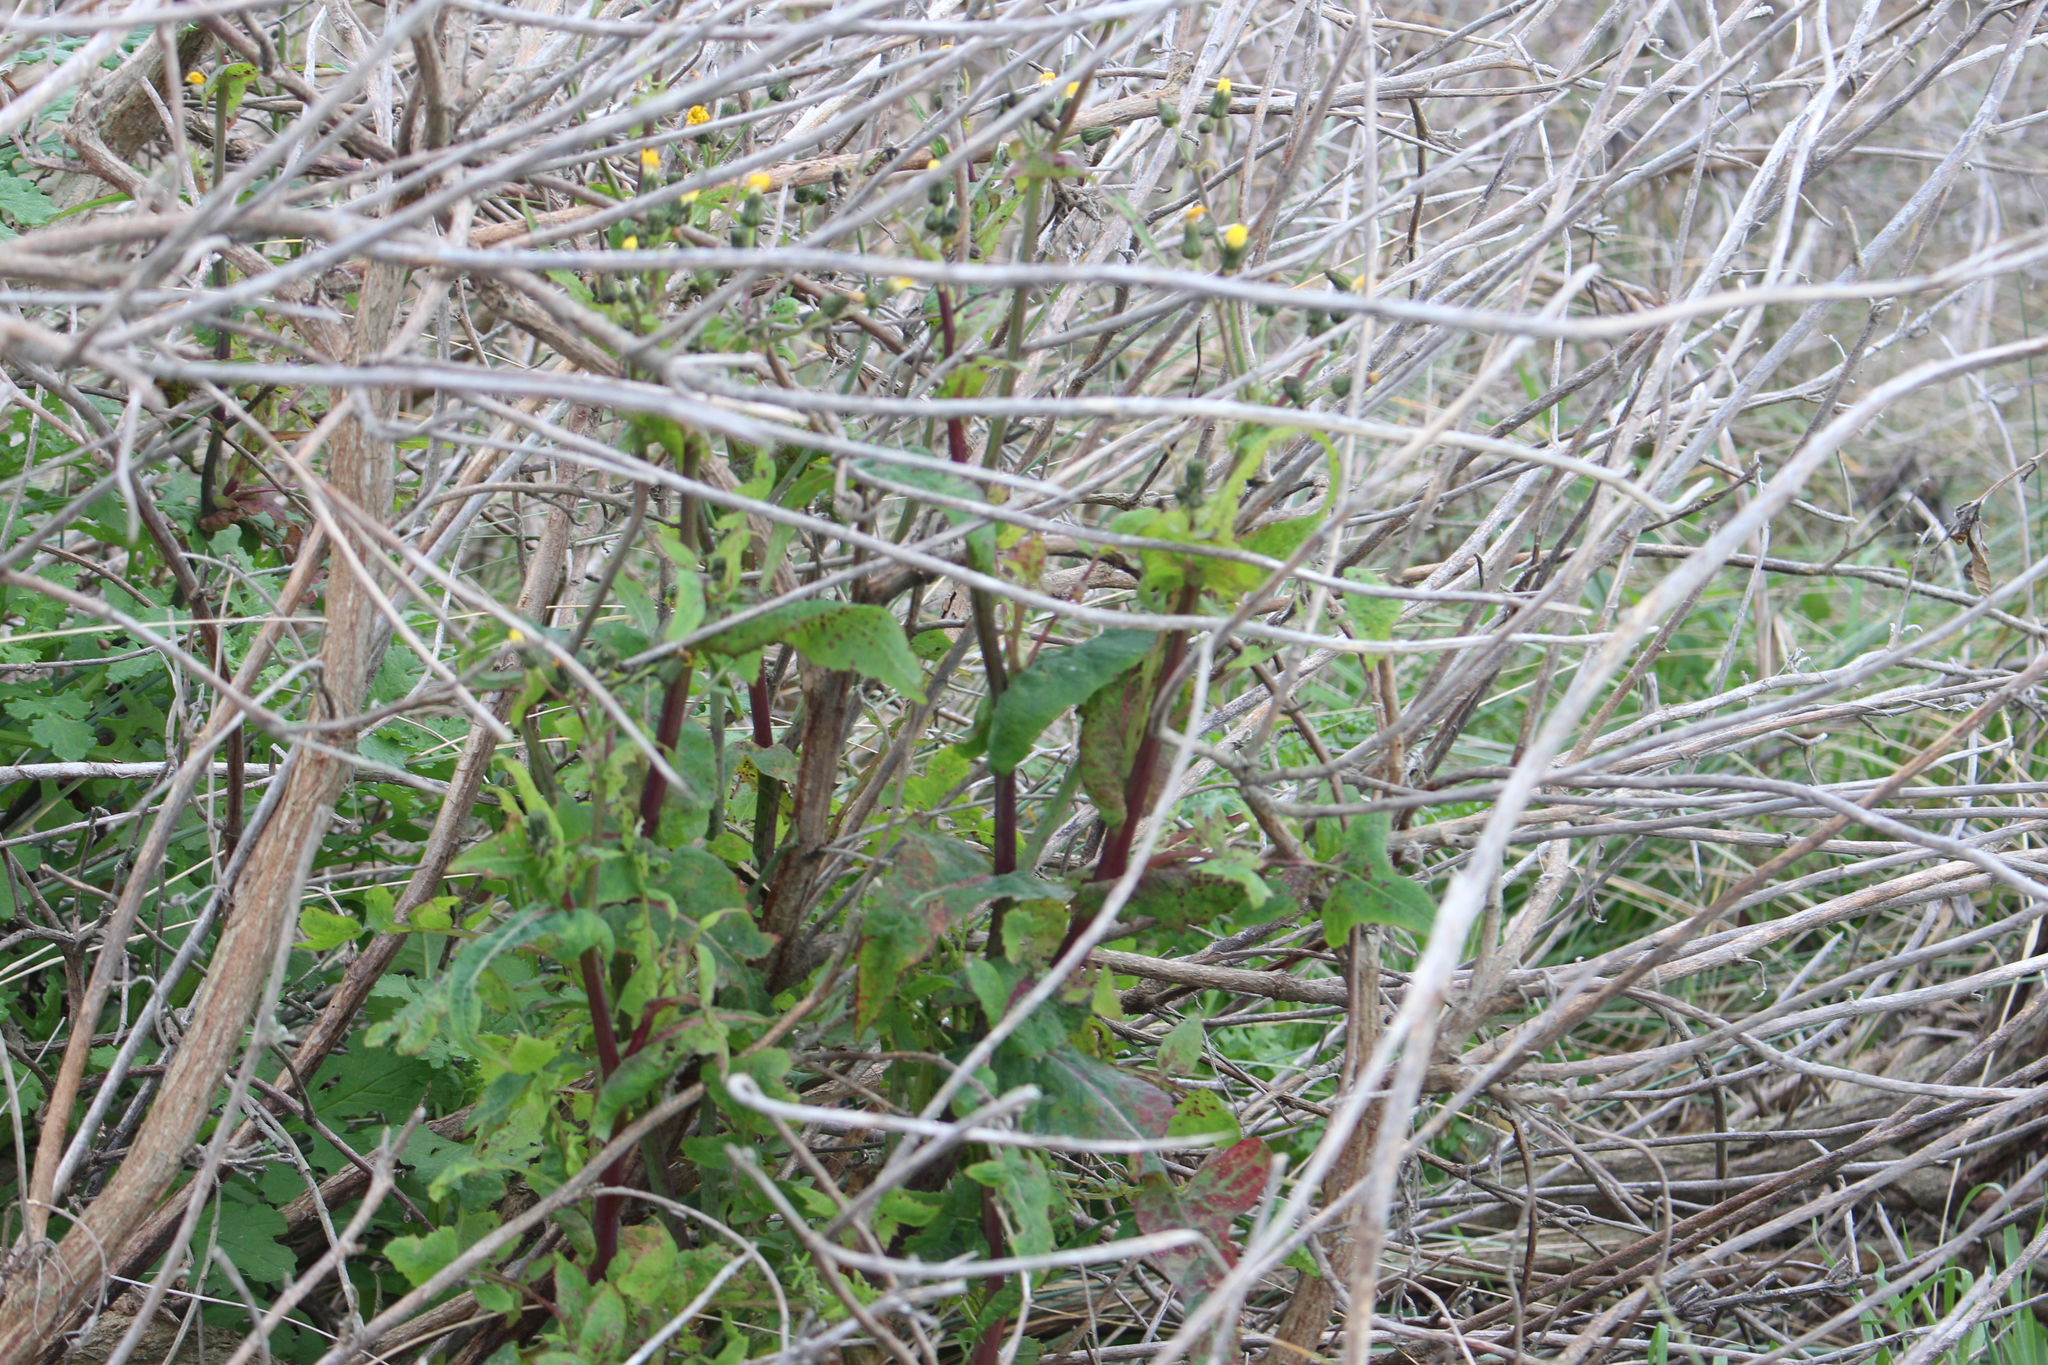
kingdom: Plantae
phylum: Tracheophyta
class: Magnoliopsida
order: Asterales
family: Asteraceae
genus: Sonchus
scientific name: Sonchus oleraceus
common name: Common sowthistle
